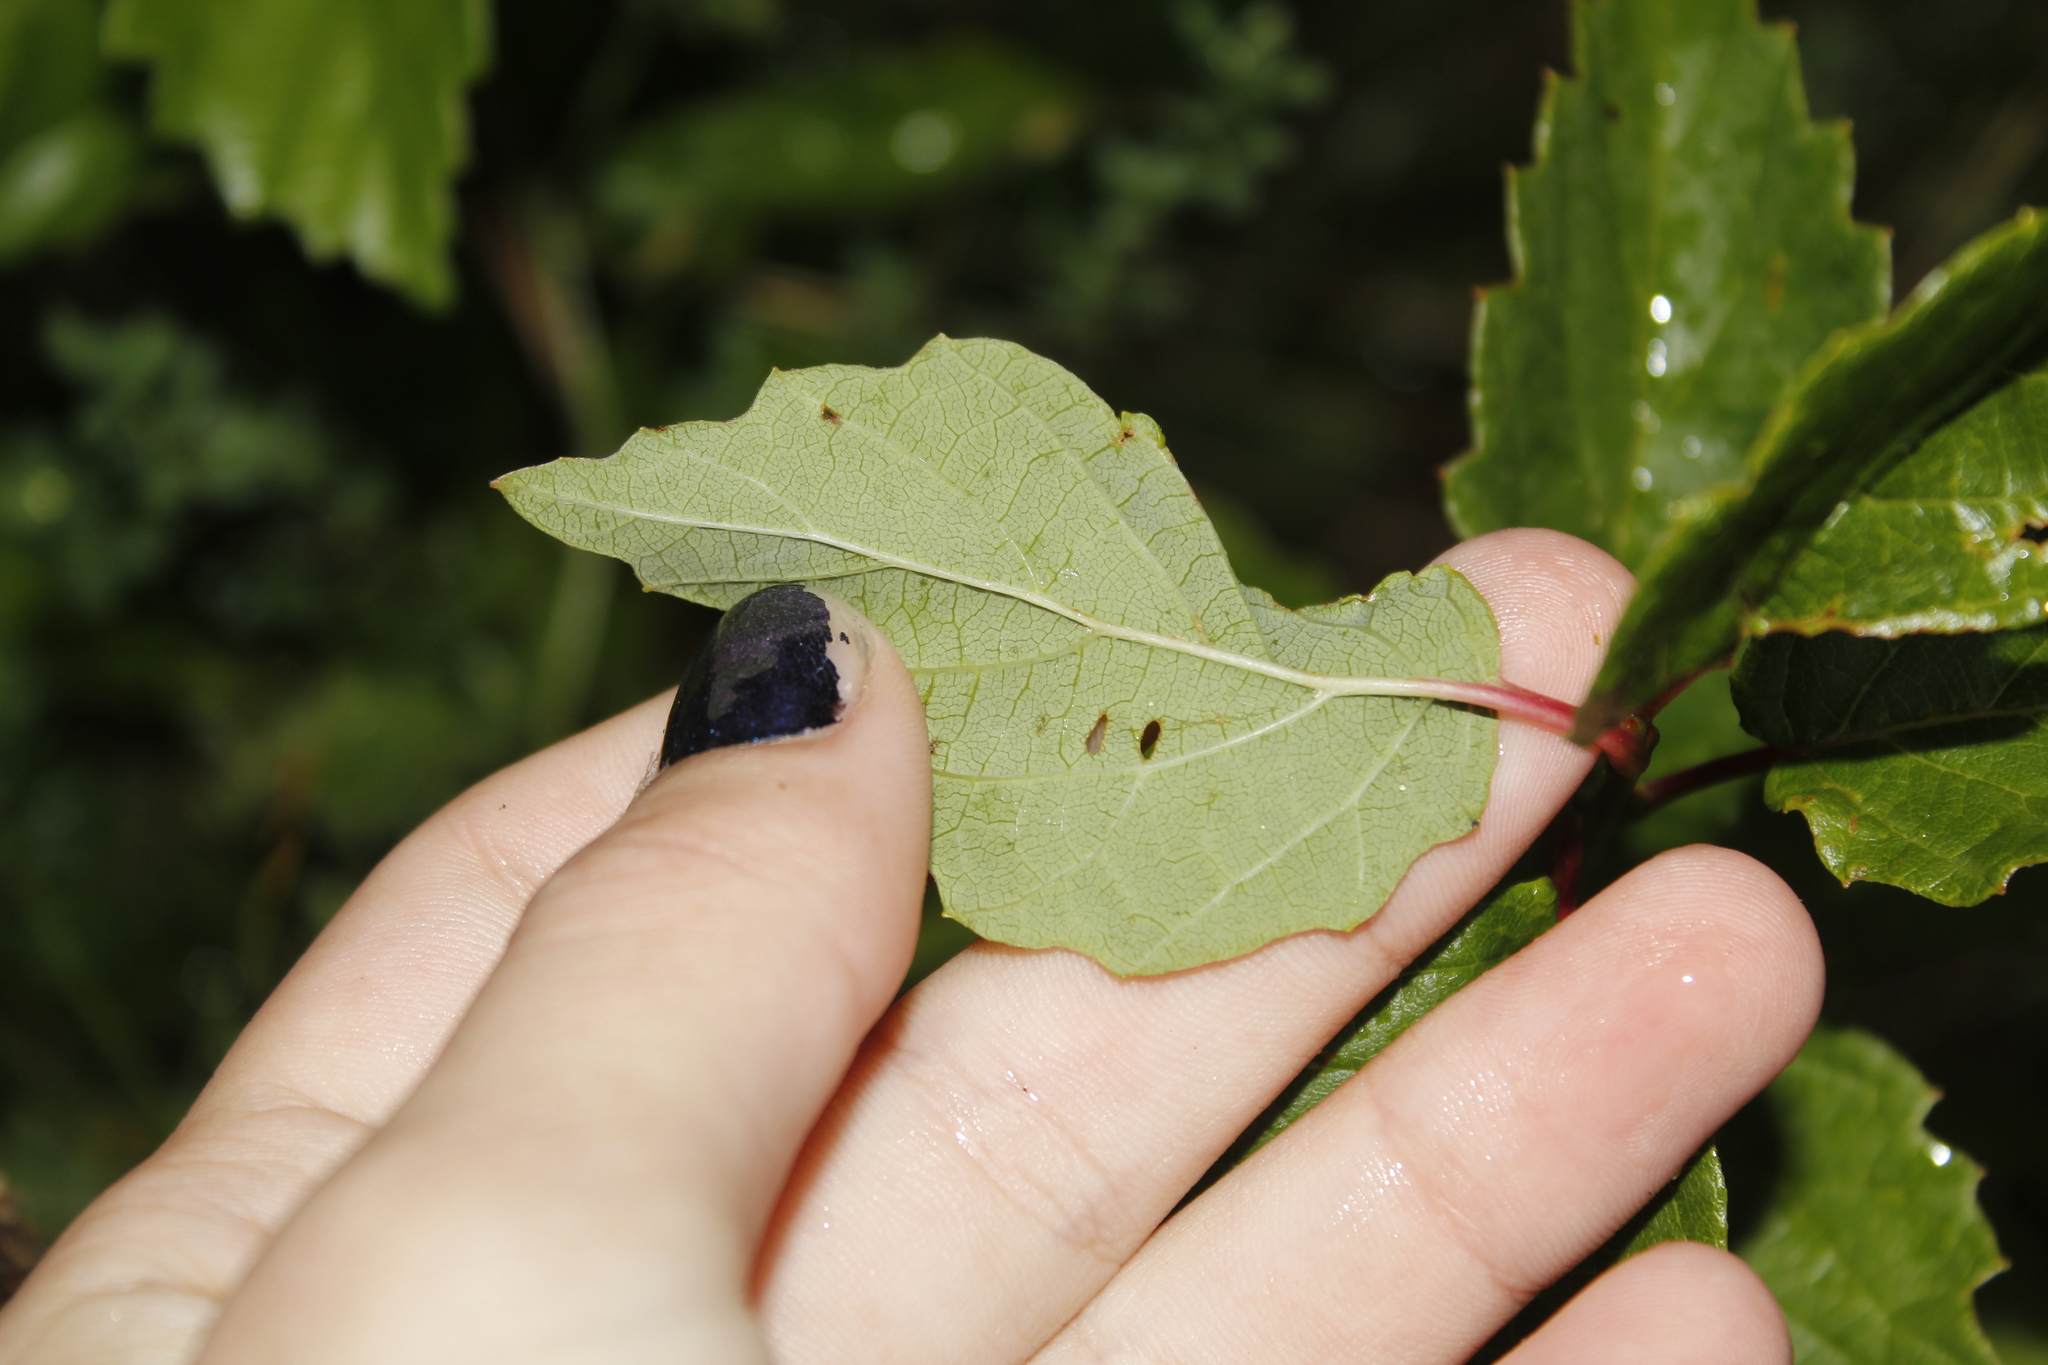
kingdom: Plantae
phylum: Tracheophyta
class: Magnoliopsida
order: Dipsacales
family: Viburnaceae
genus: Viburnum
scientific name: Viburnum dentatum
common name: Arrow-wood
